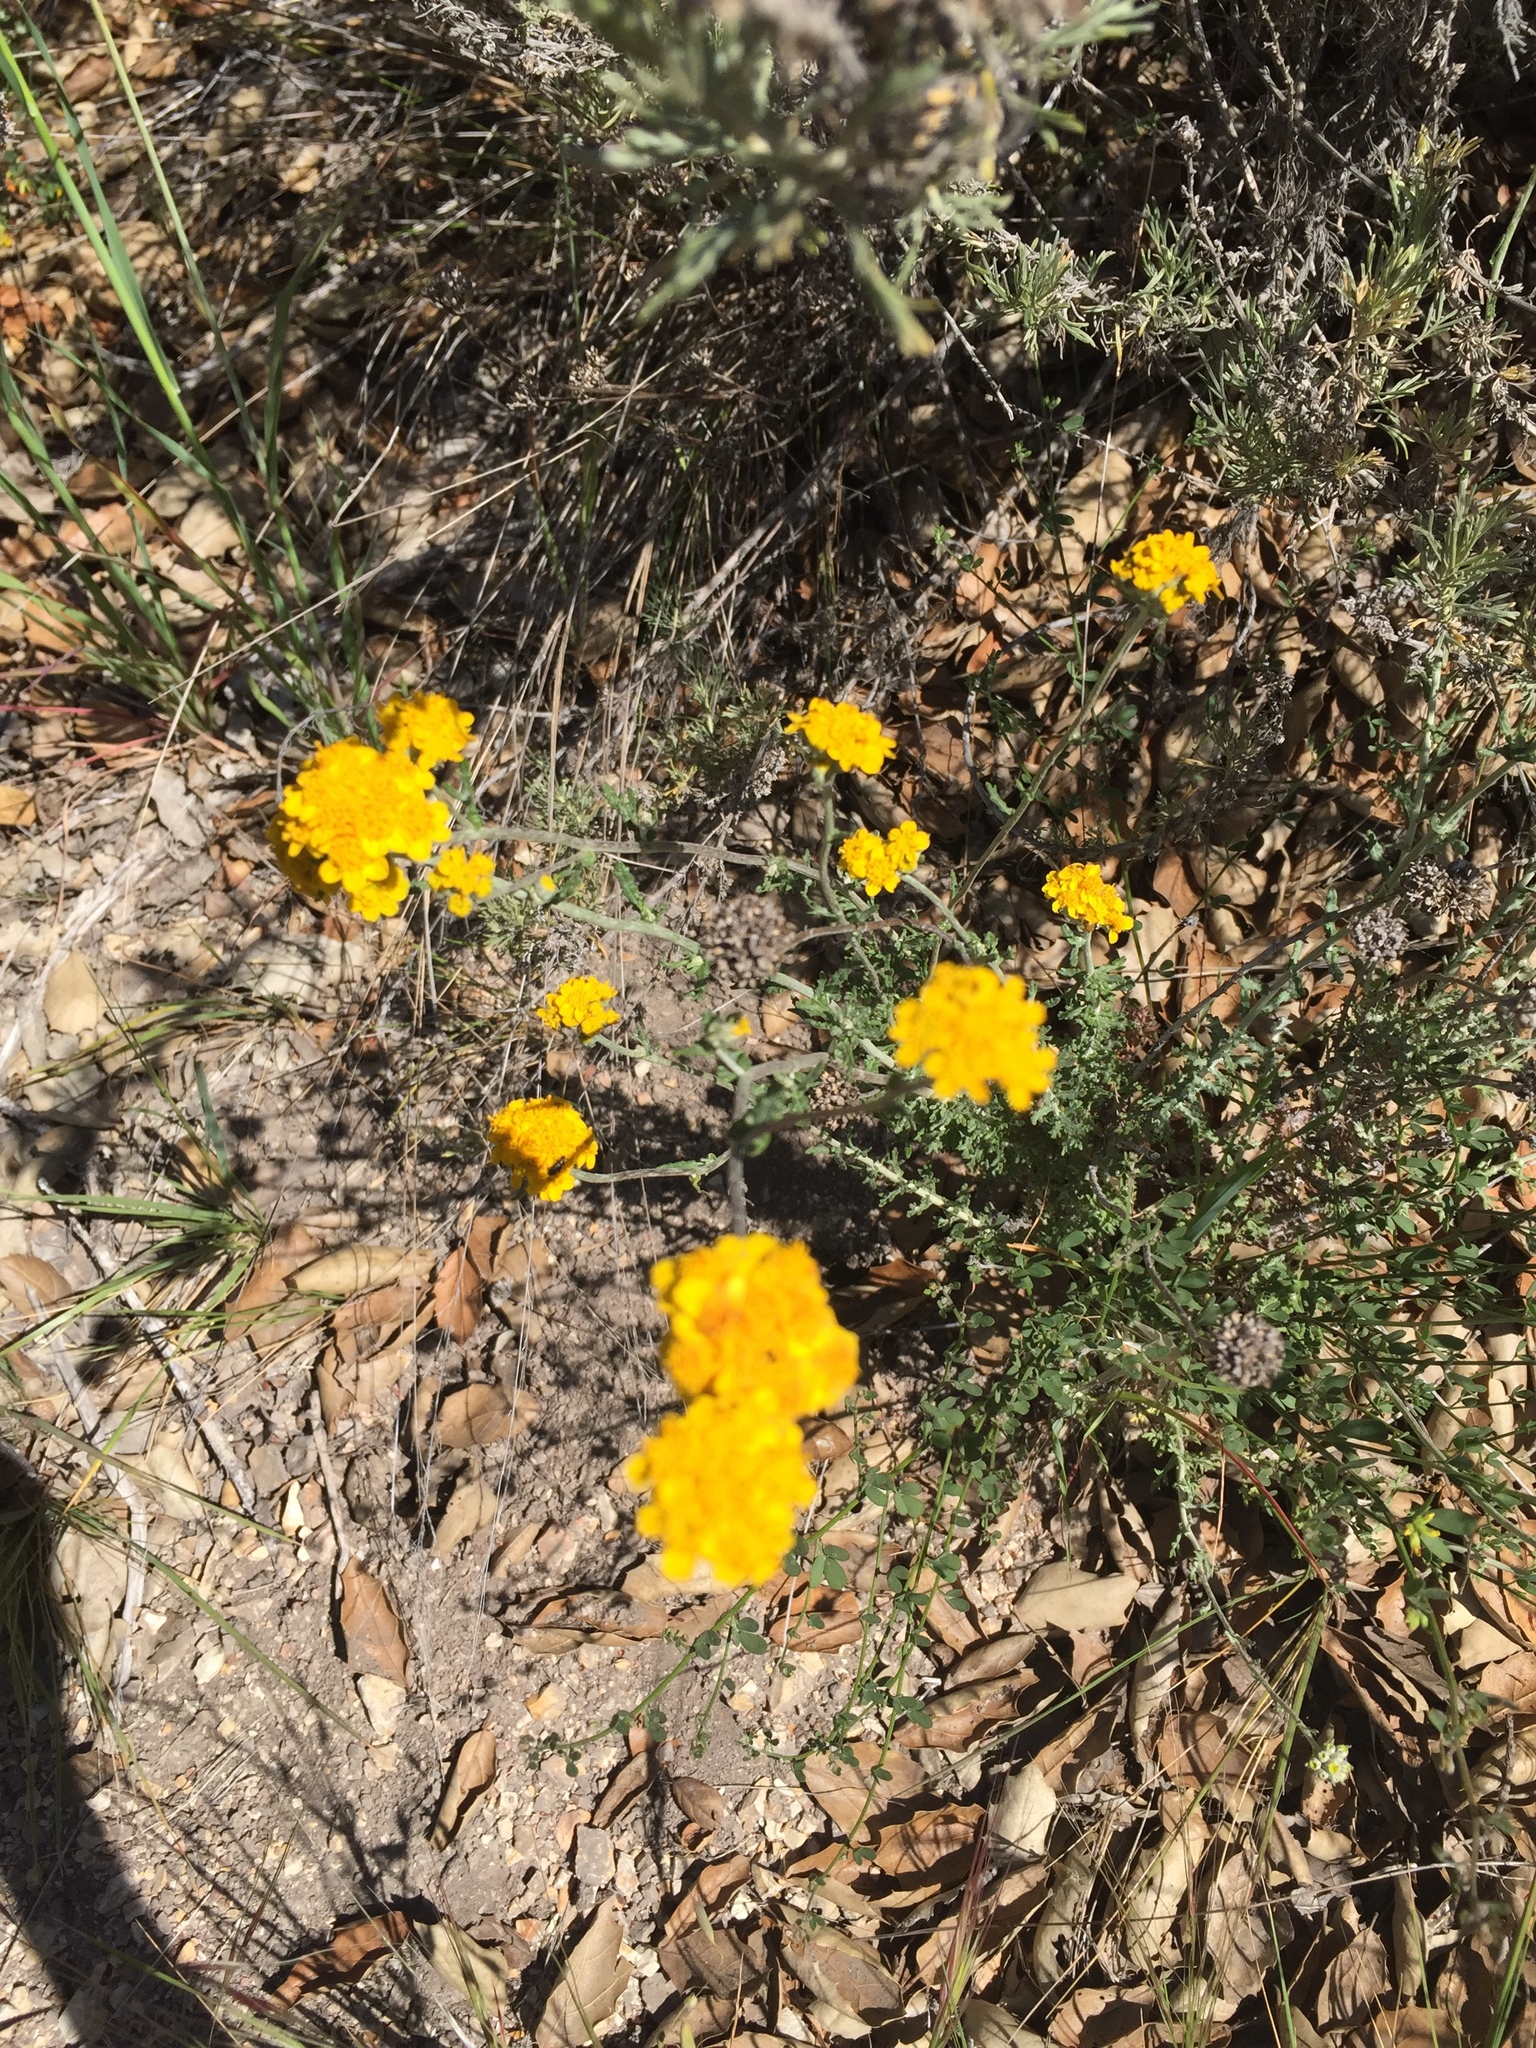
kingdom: Plantae
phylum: Tracheophyta
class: Magnoliopsida
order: Asterales
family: Asteraceae
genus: Eriophyllum
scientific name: Eriophyllum confertiflorum
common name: Golden-yarrow
